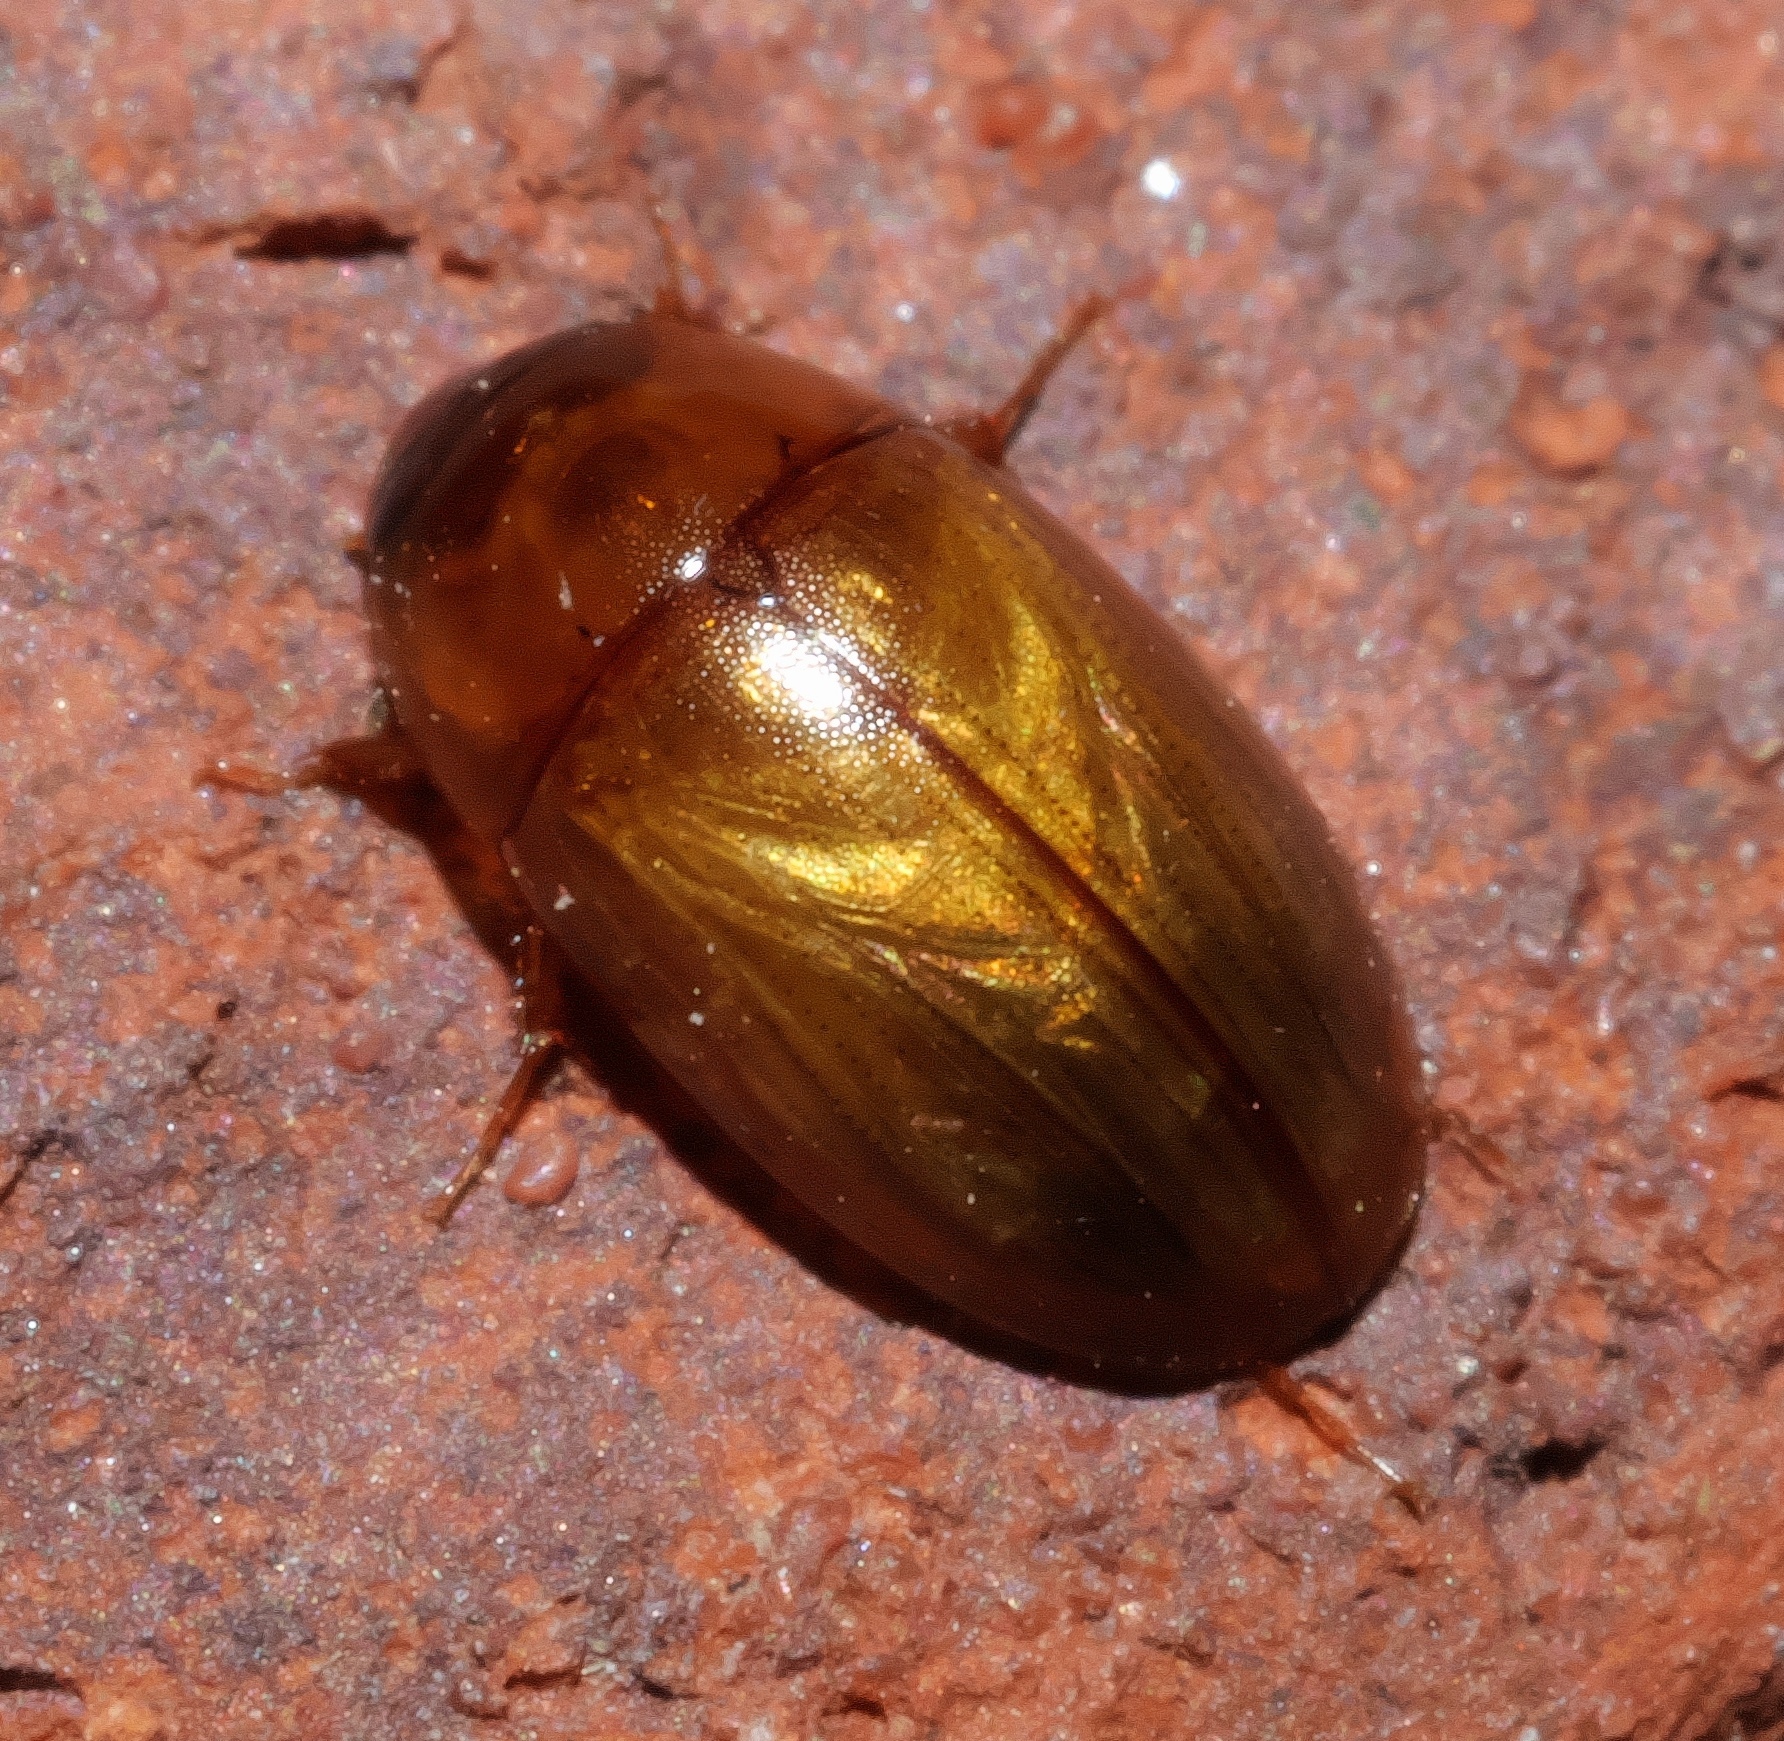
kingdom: Animalia
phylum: Arthropoda
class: Insecta
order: Coleoptera
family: Hydrophilidae
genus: Enochrus
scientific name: Enochrus
